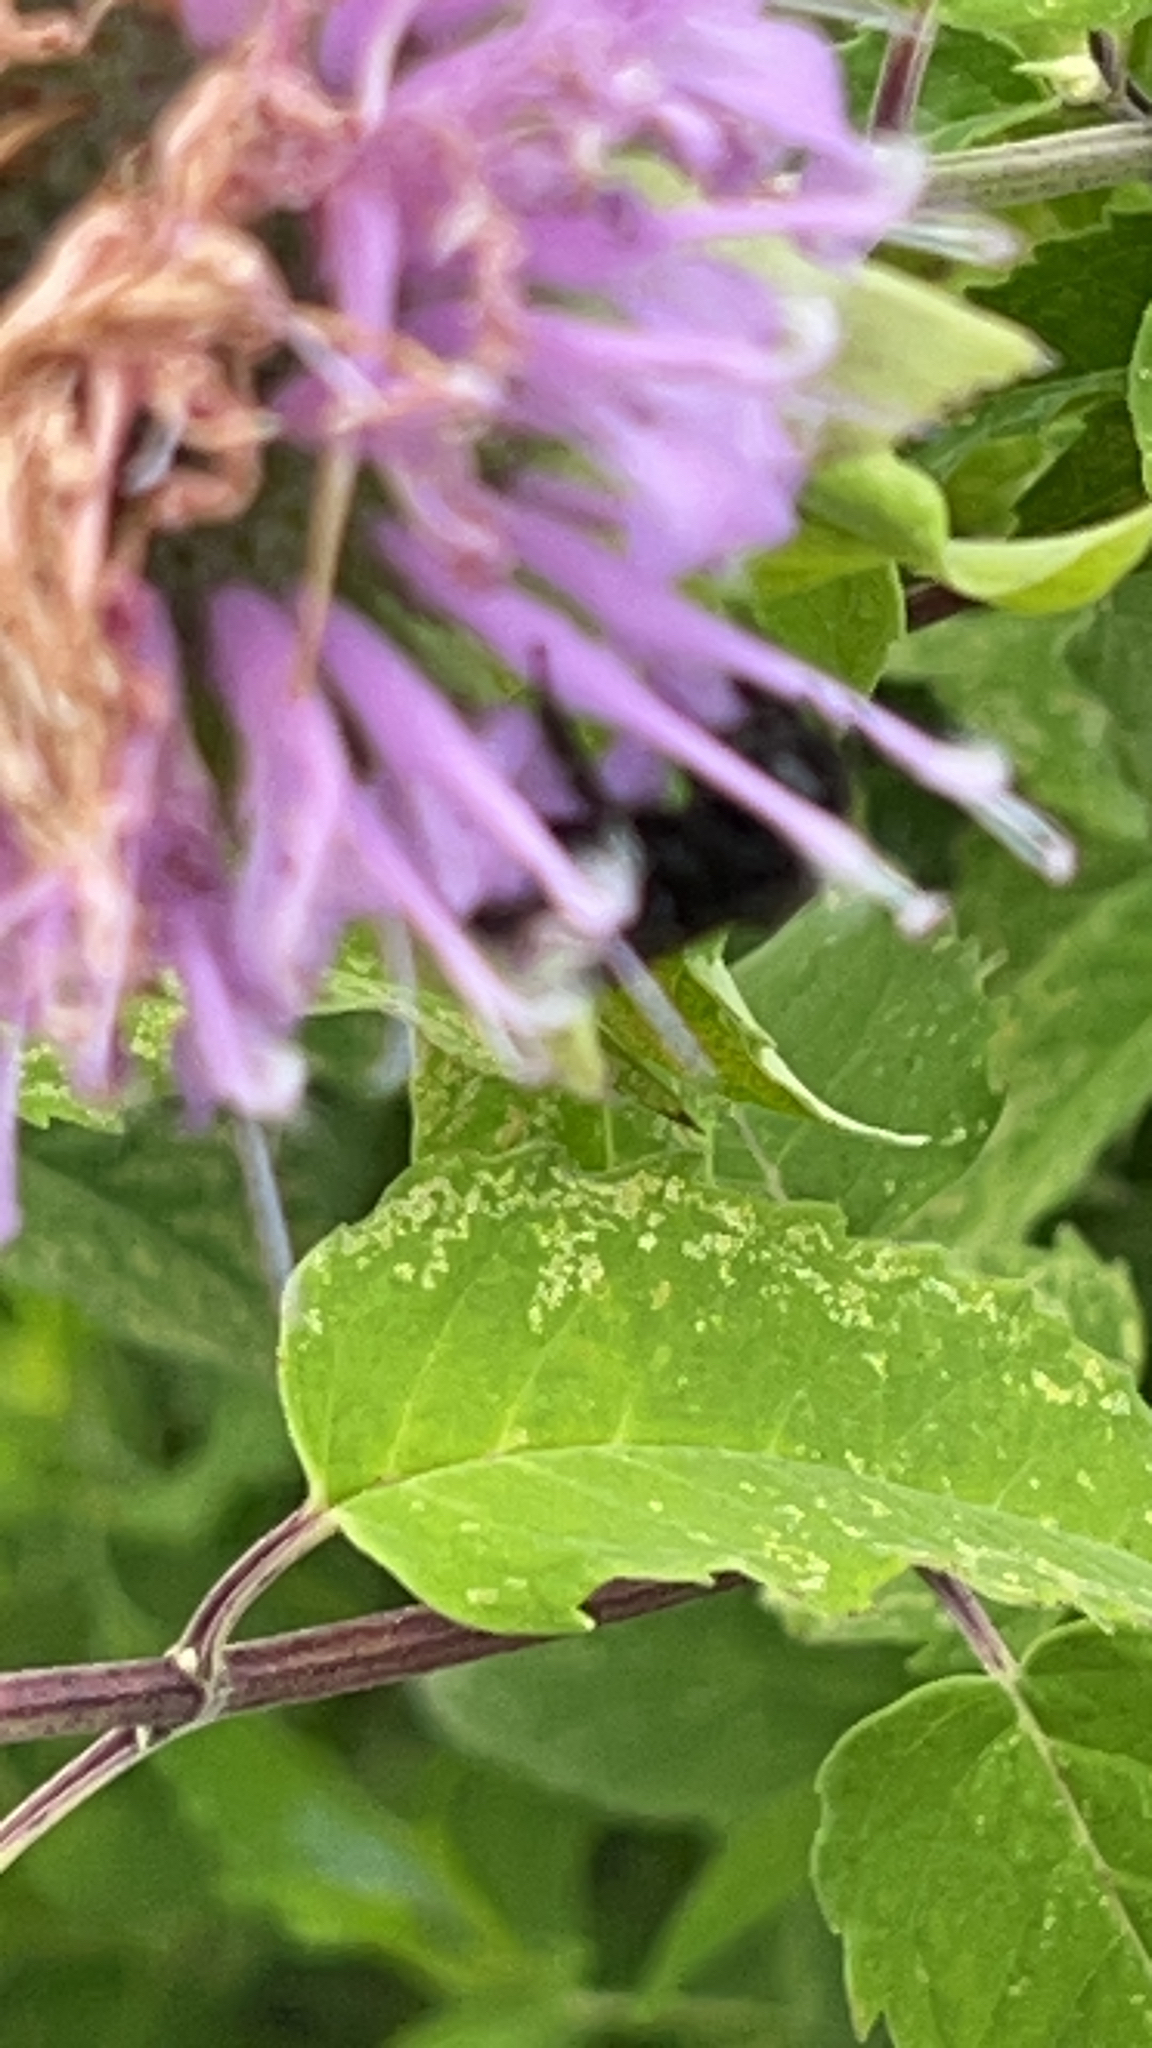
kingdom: Animalia
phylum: Arthropoda
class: Insecta
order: Hymenoptera
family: Apidae
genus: Melissodes
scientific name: Melissodes bimaculatus
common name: Two-spotted long-horned bee
